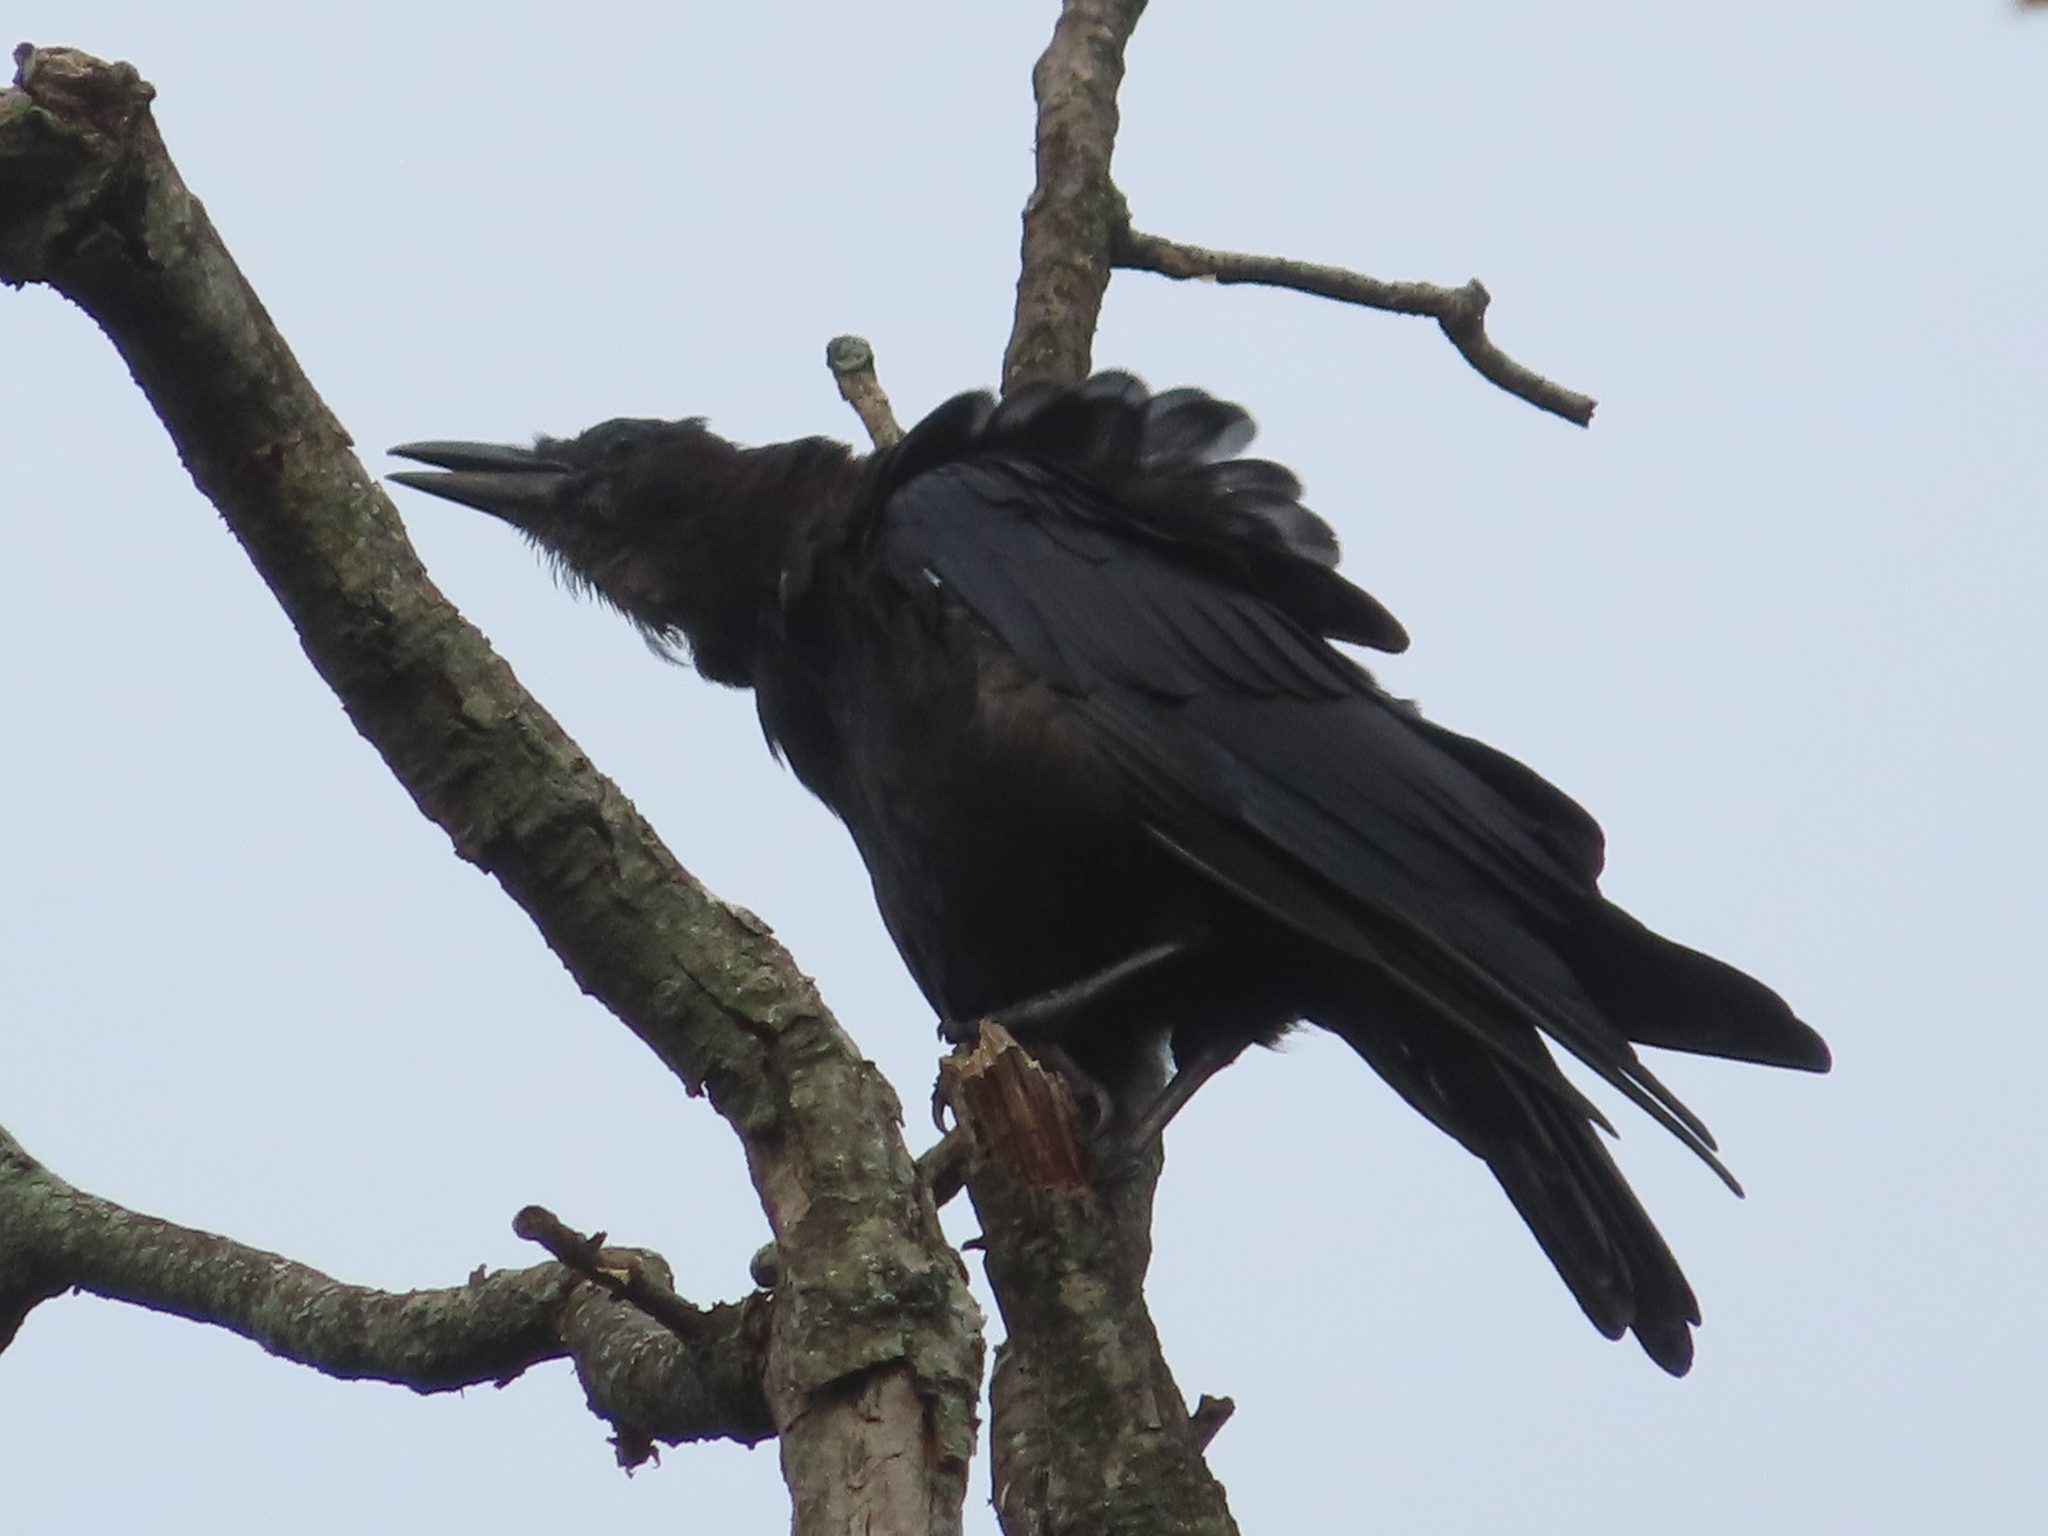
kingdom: Animalia
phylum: Chordata
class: Aves
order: Passeriformes
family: Corvidae
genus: Corvus
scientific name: Corvus brachyrhynchos
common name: American crow
